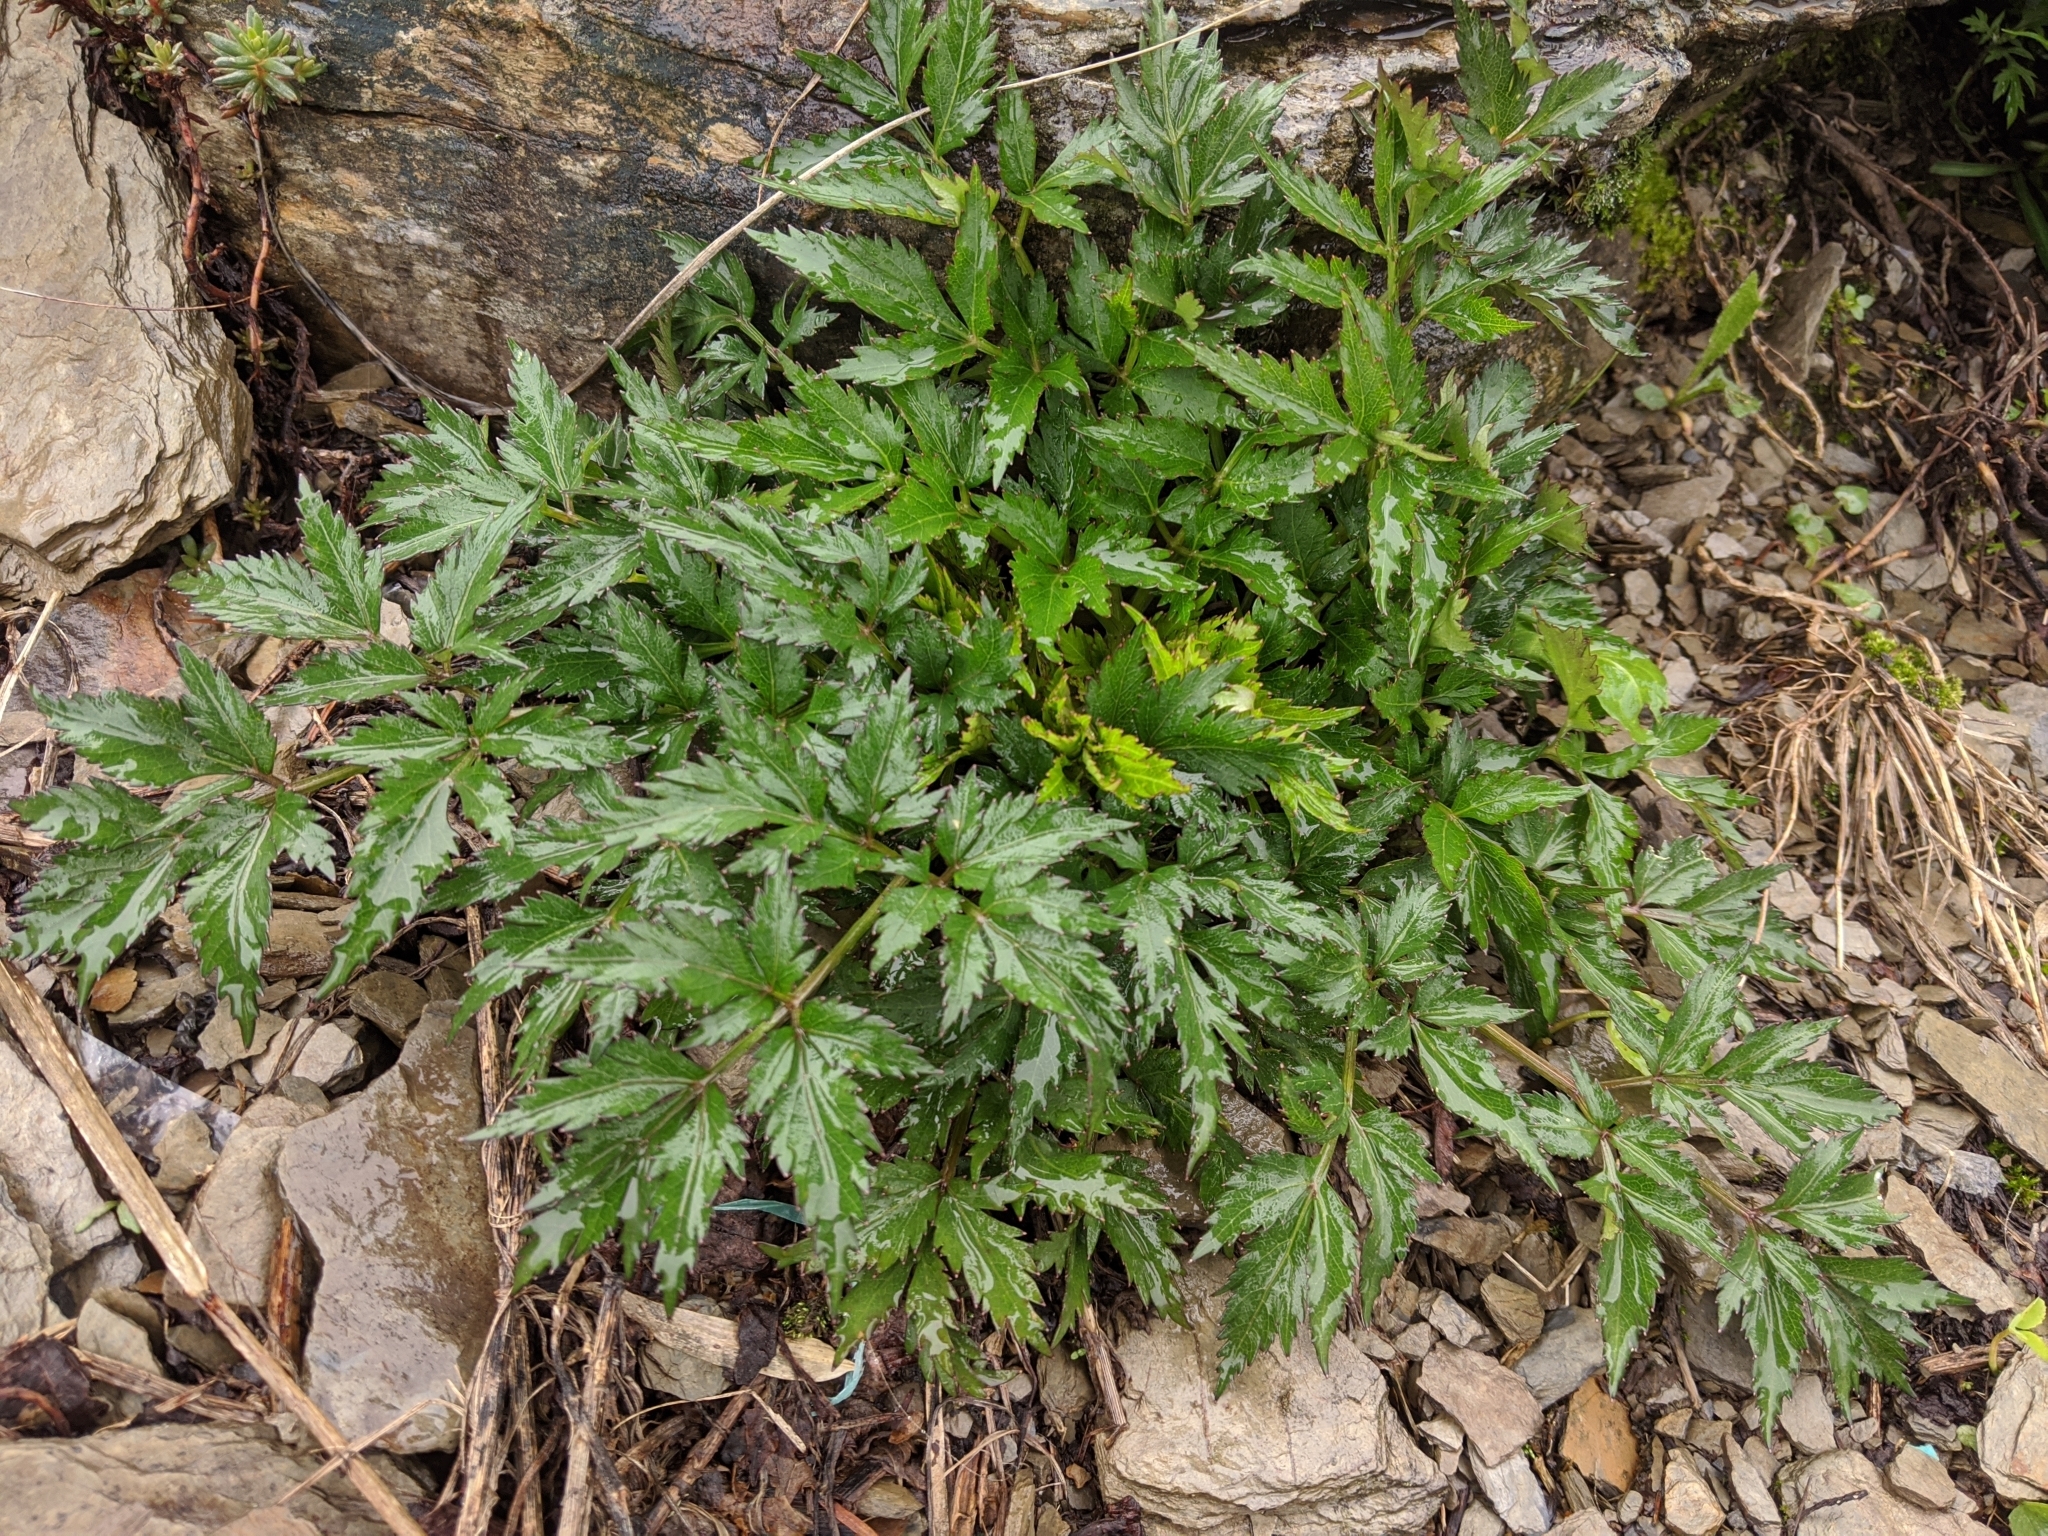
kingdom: Plantae
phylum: Tracheophyta
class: Magnoliopsida
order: Apiales
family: Apiaceae
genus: Angelica
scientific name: Angelica morii
